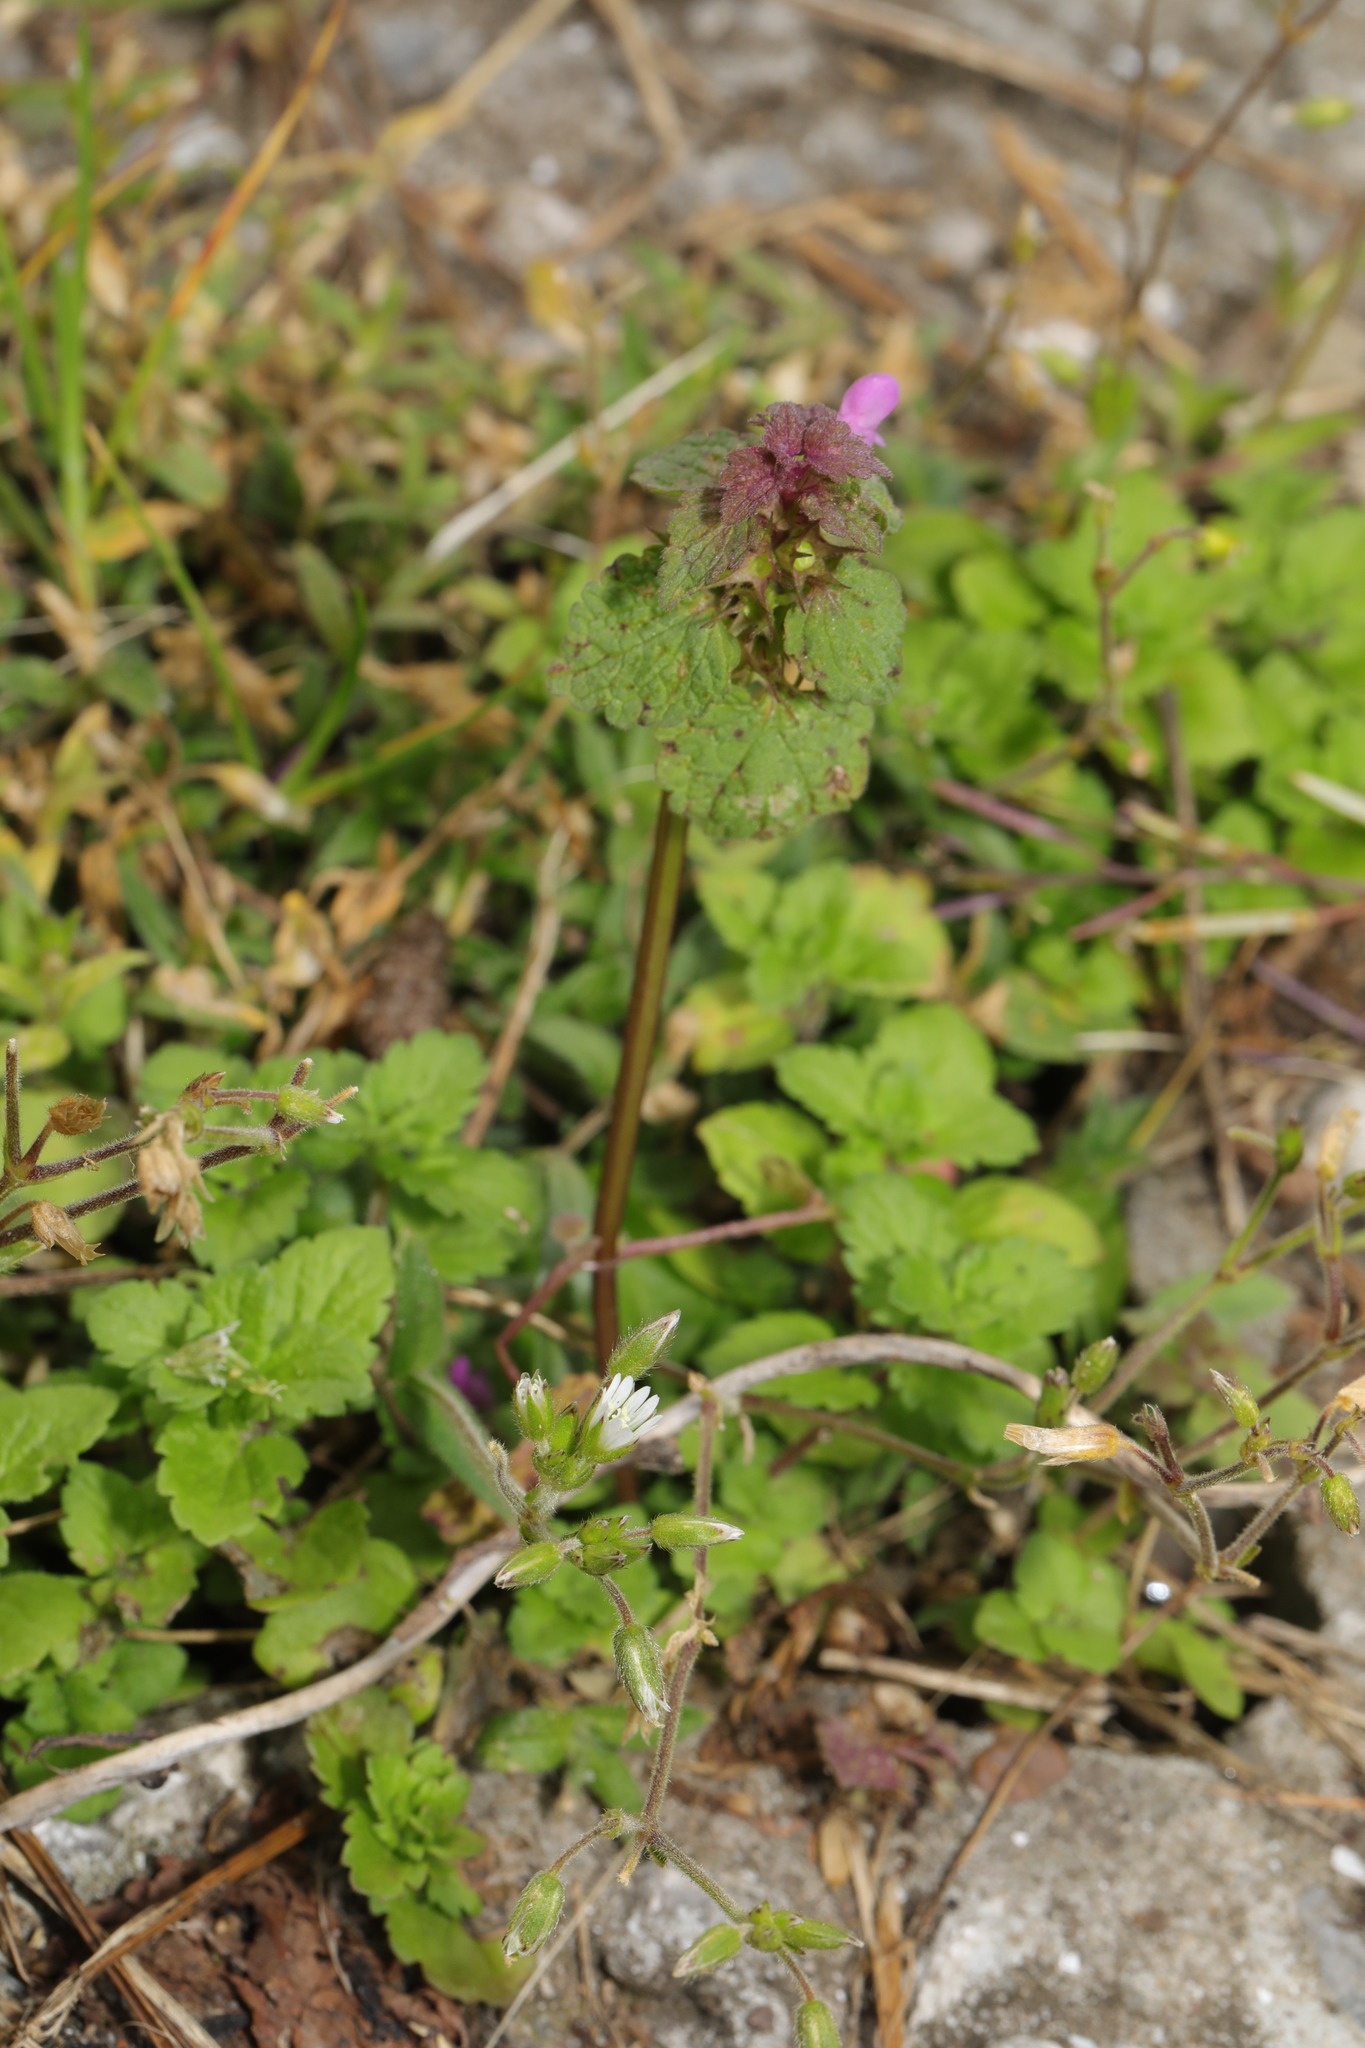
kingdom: Plantae
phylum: Tracheophyta
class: Magnoliopsida
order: Lamiales
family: Lamiaceae
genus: Lamium
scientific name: Lamium purpureum
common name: Red dead-nettle
